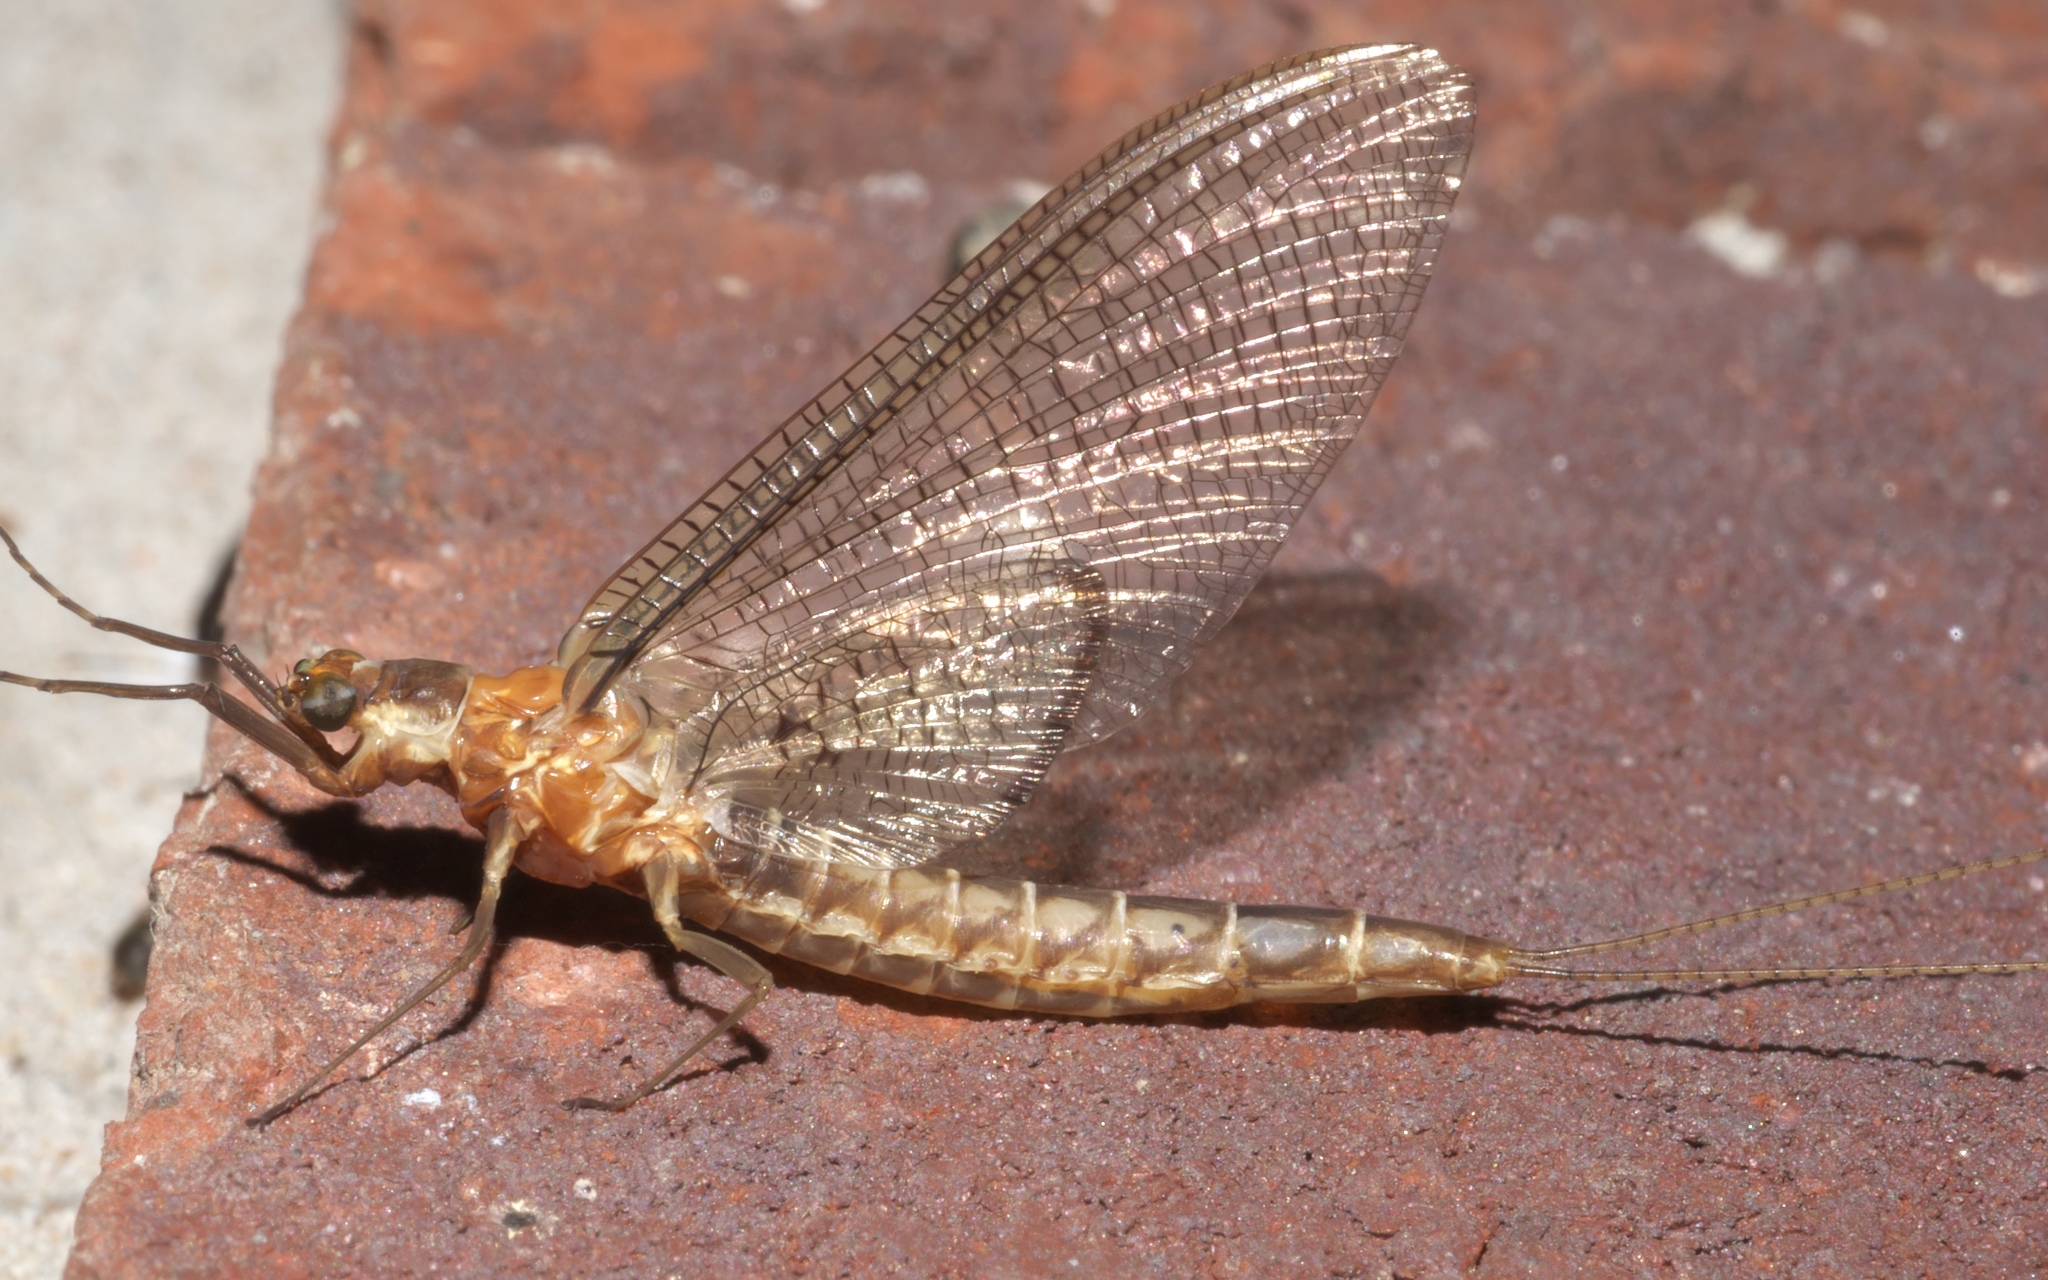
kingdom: Animalia
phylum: Arthropoda
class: Insecta
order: Ephemeroptera
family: Ephemeridae
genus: Hexagenia
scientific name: Hexagenia bilineata
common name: Emergent mayfly
